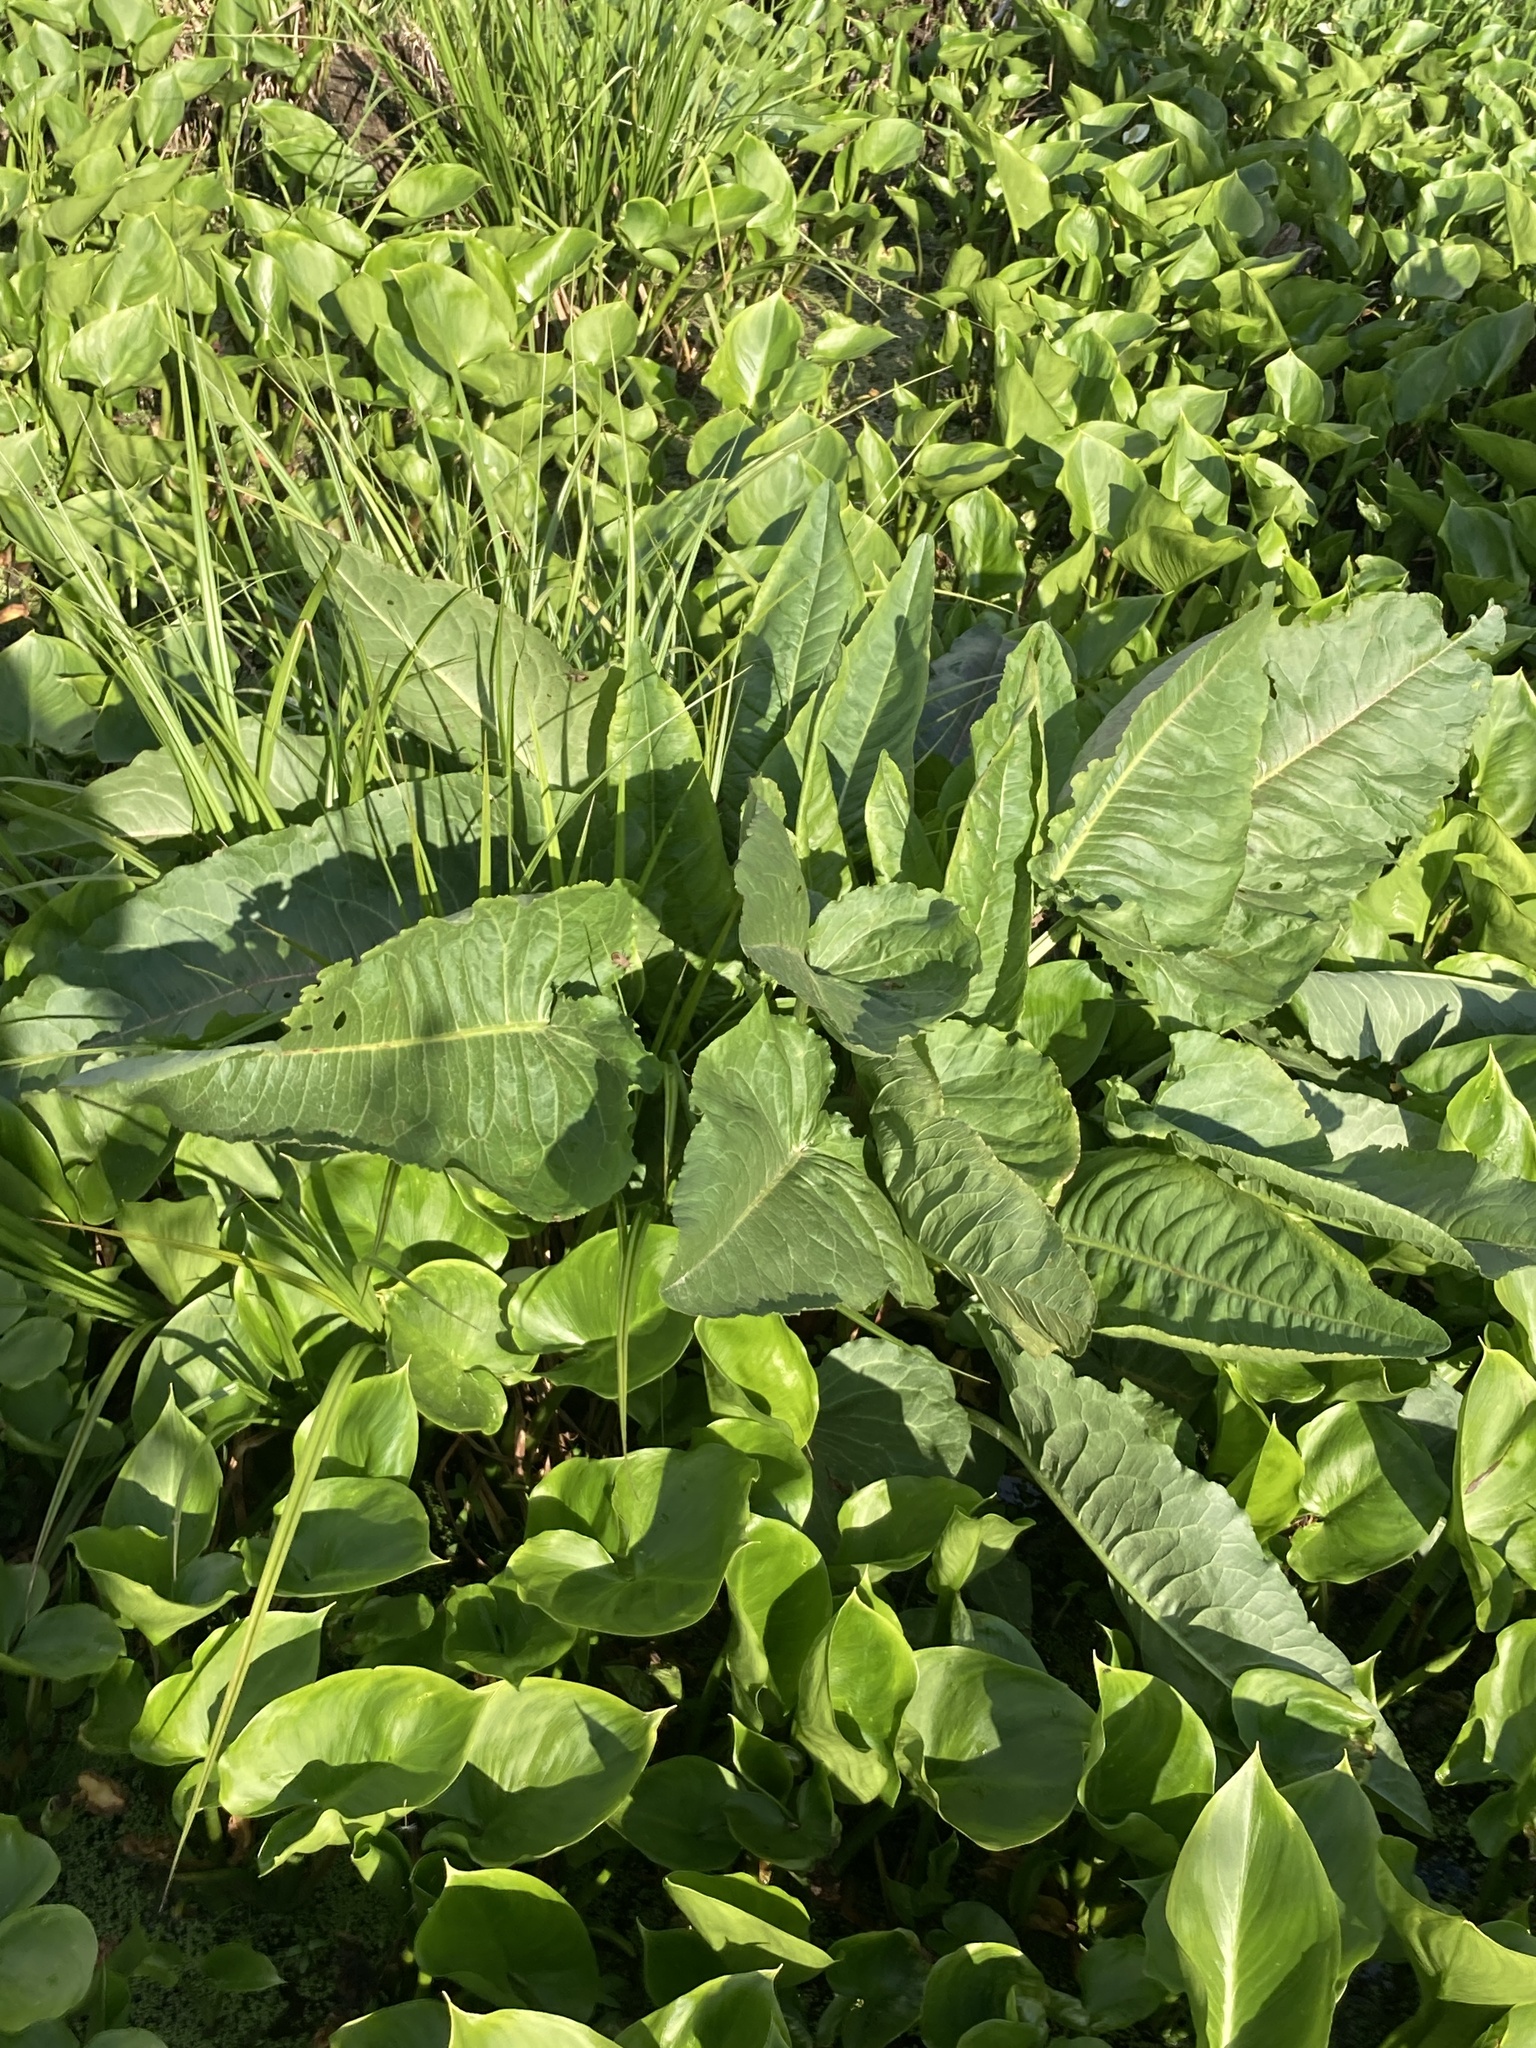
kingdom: Plantae
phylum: Tracheophyta
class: Magnoliopsida
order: Caryophyllales
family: Polygonaceae
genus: Rumex
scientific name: Rumex aquaticus
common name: Scottish dock
